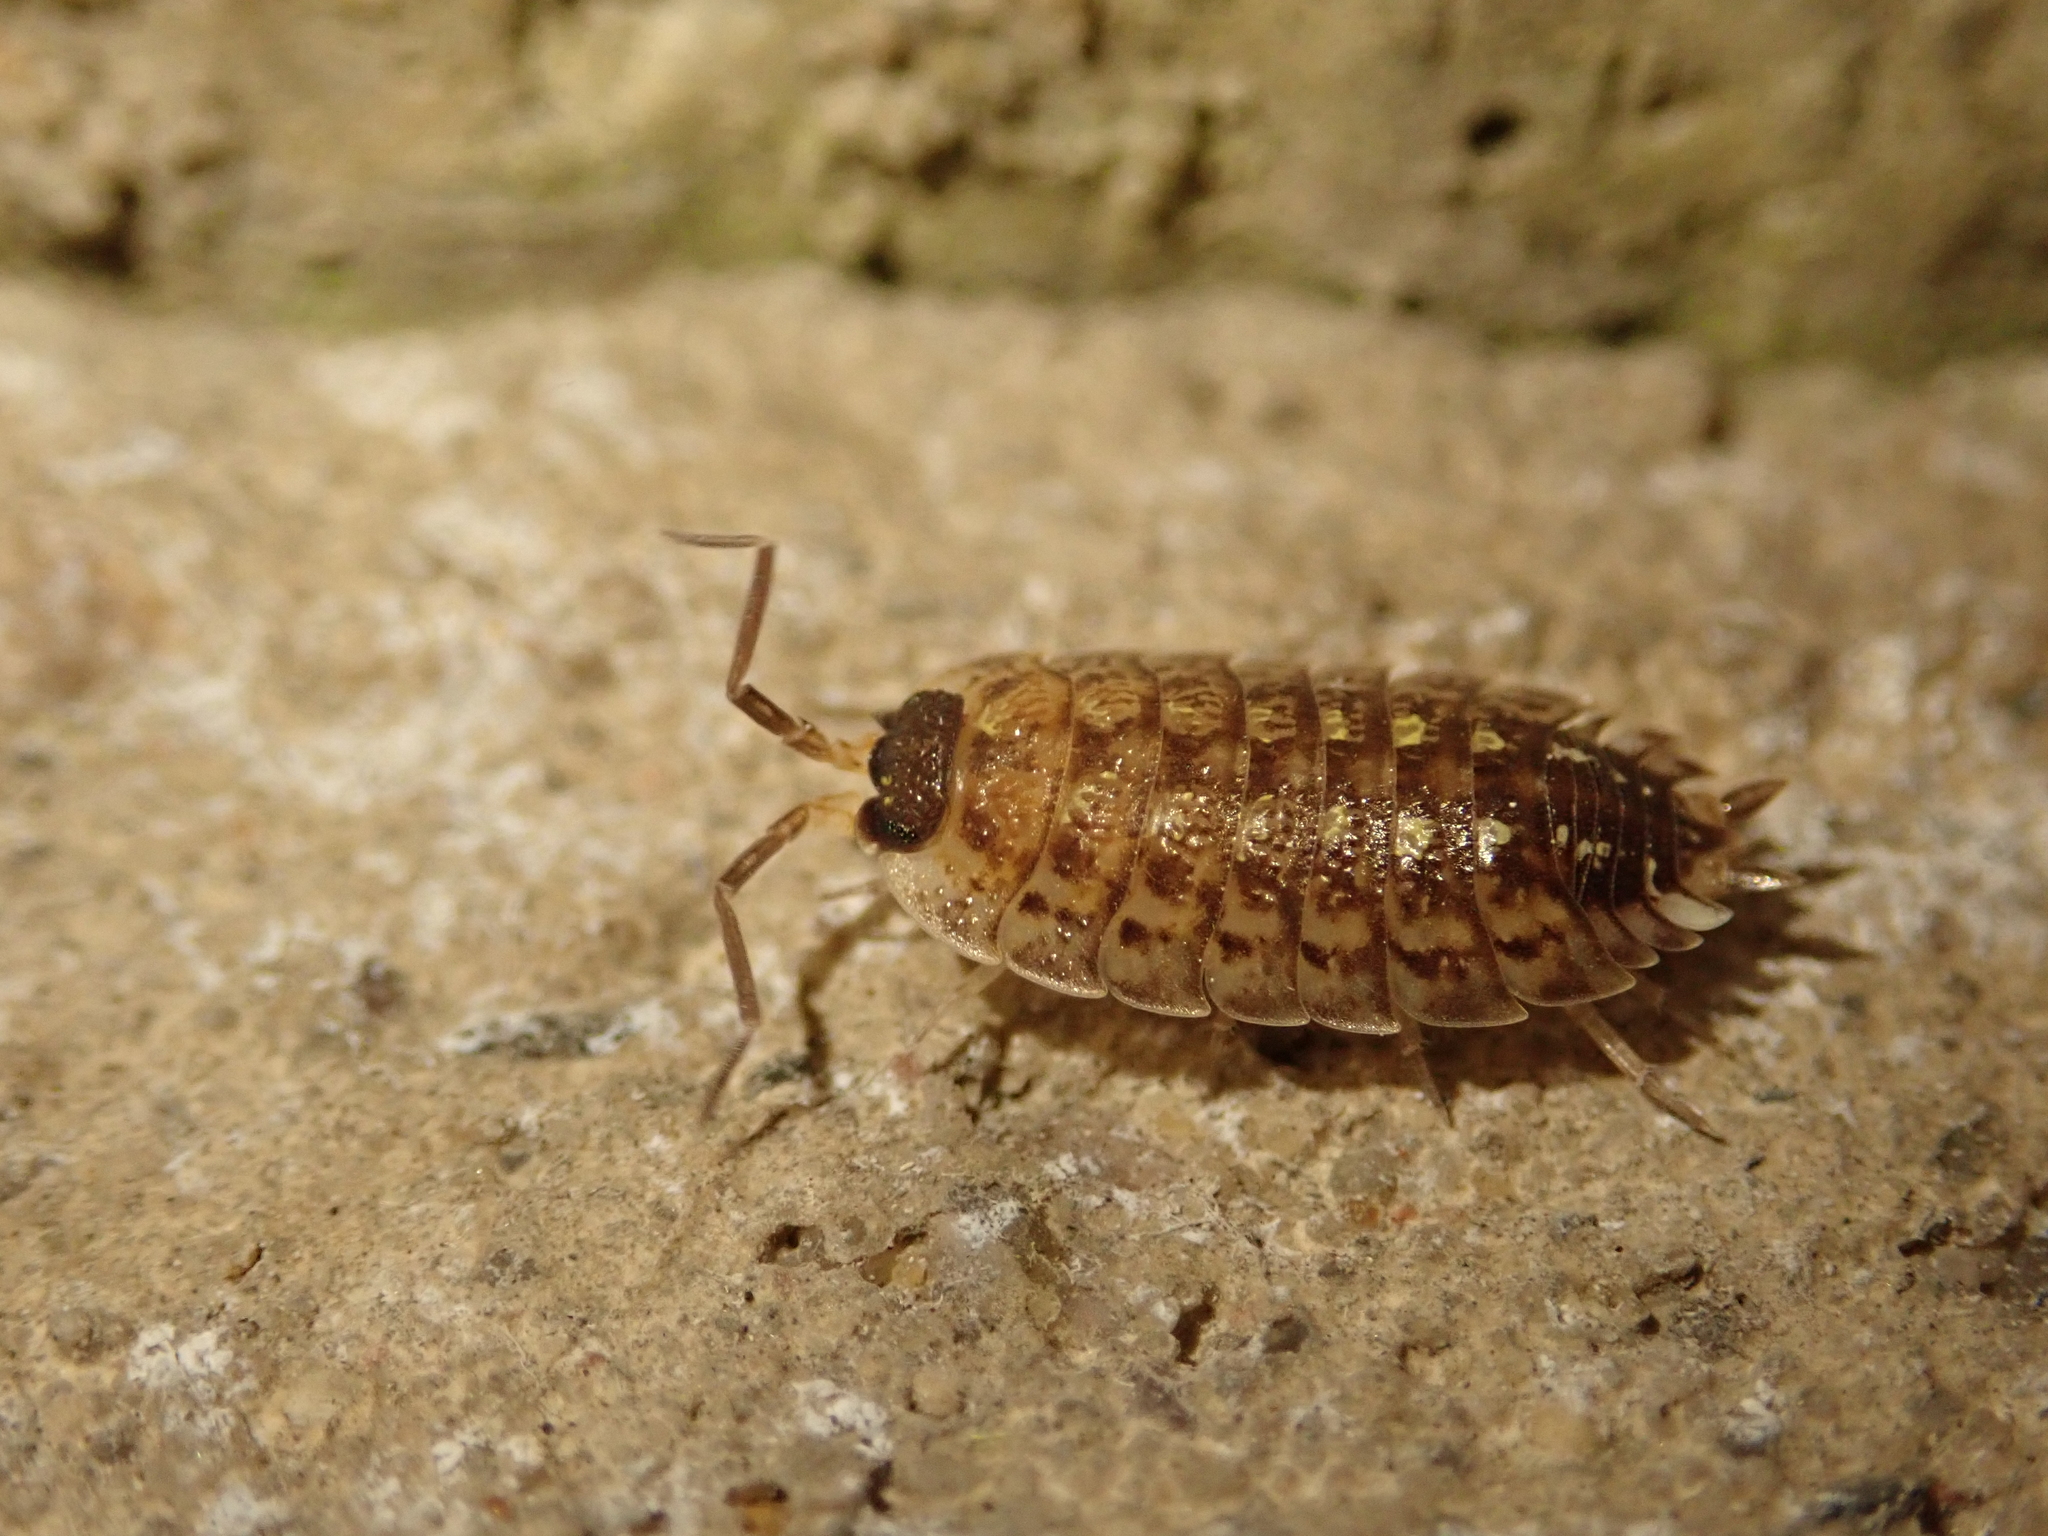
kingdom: Animalia
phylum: Arthropoda
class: Malacostraca
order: Isopoda
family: Porcellionidae
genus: Porcellio
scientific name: Porcellio spinicornis
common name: Painted woodlouse
